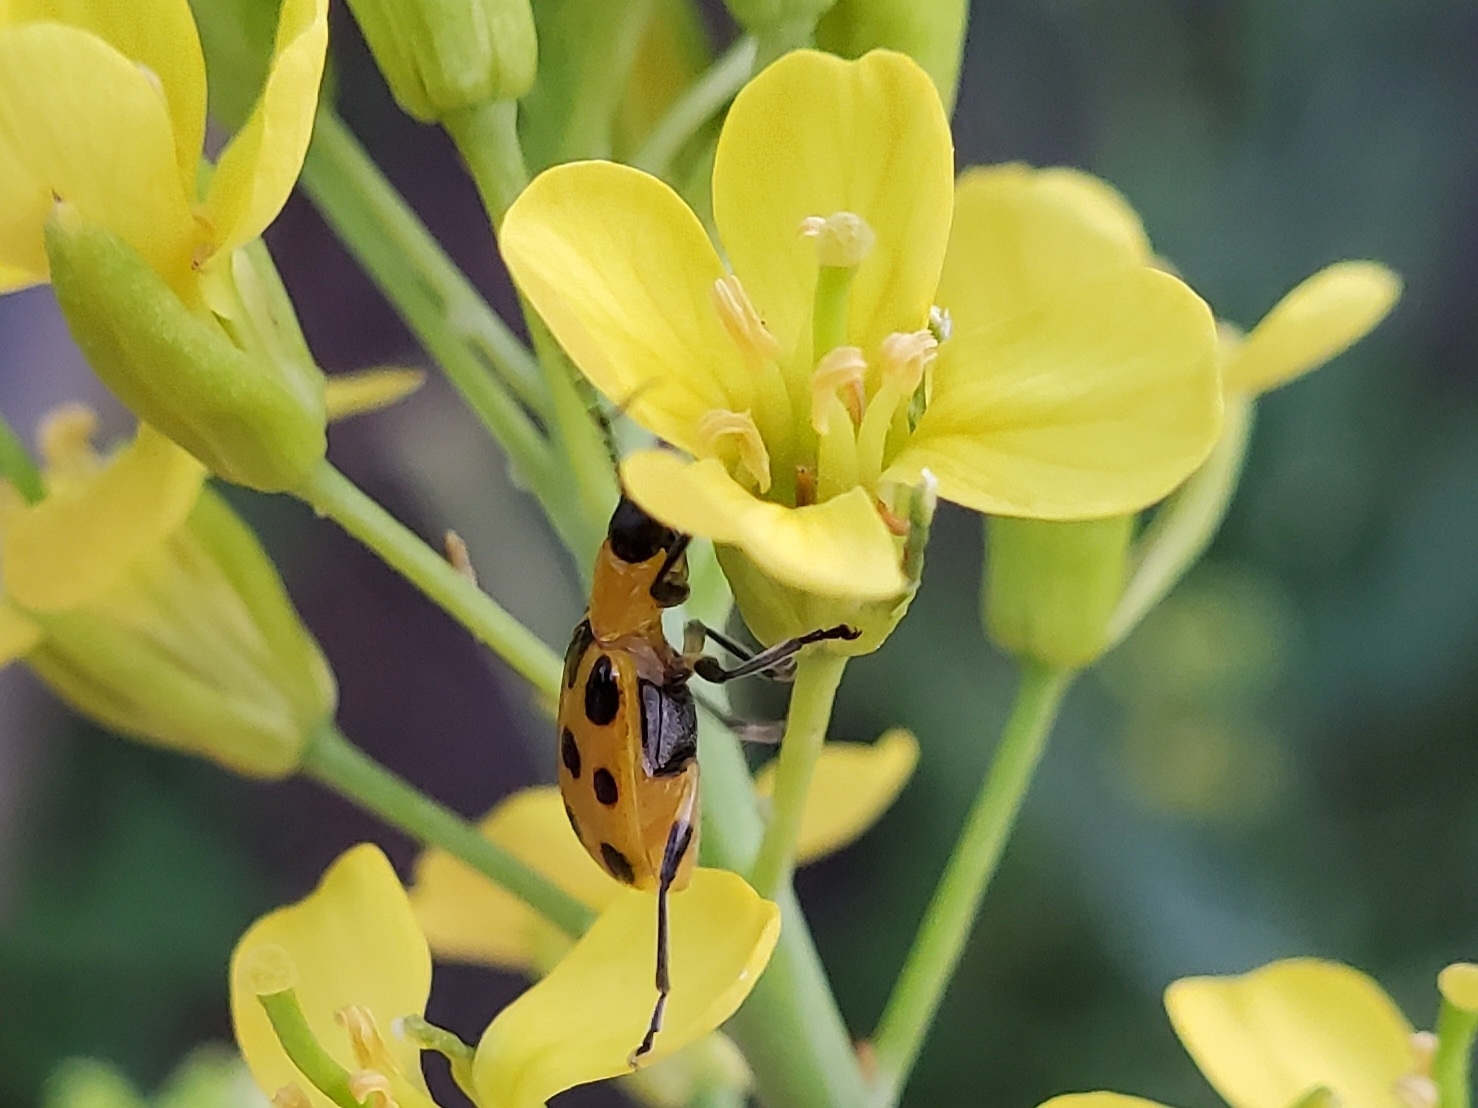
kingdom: Animalia
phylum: Arthropoda
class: Insecta
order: Coleoptera
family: Chrysomelidae
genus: Diabrotica
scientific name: Diabrotica undecimpunctata
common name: Spotted cucumber beetle
